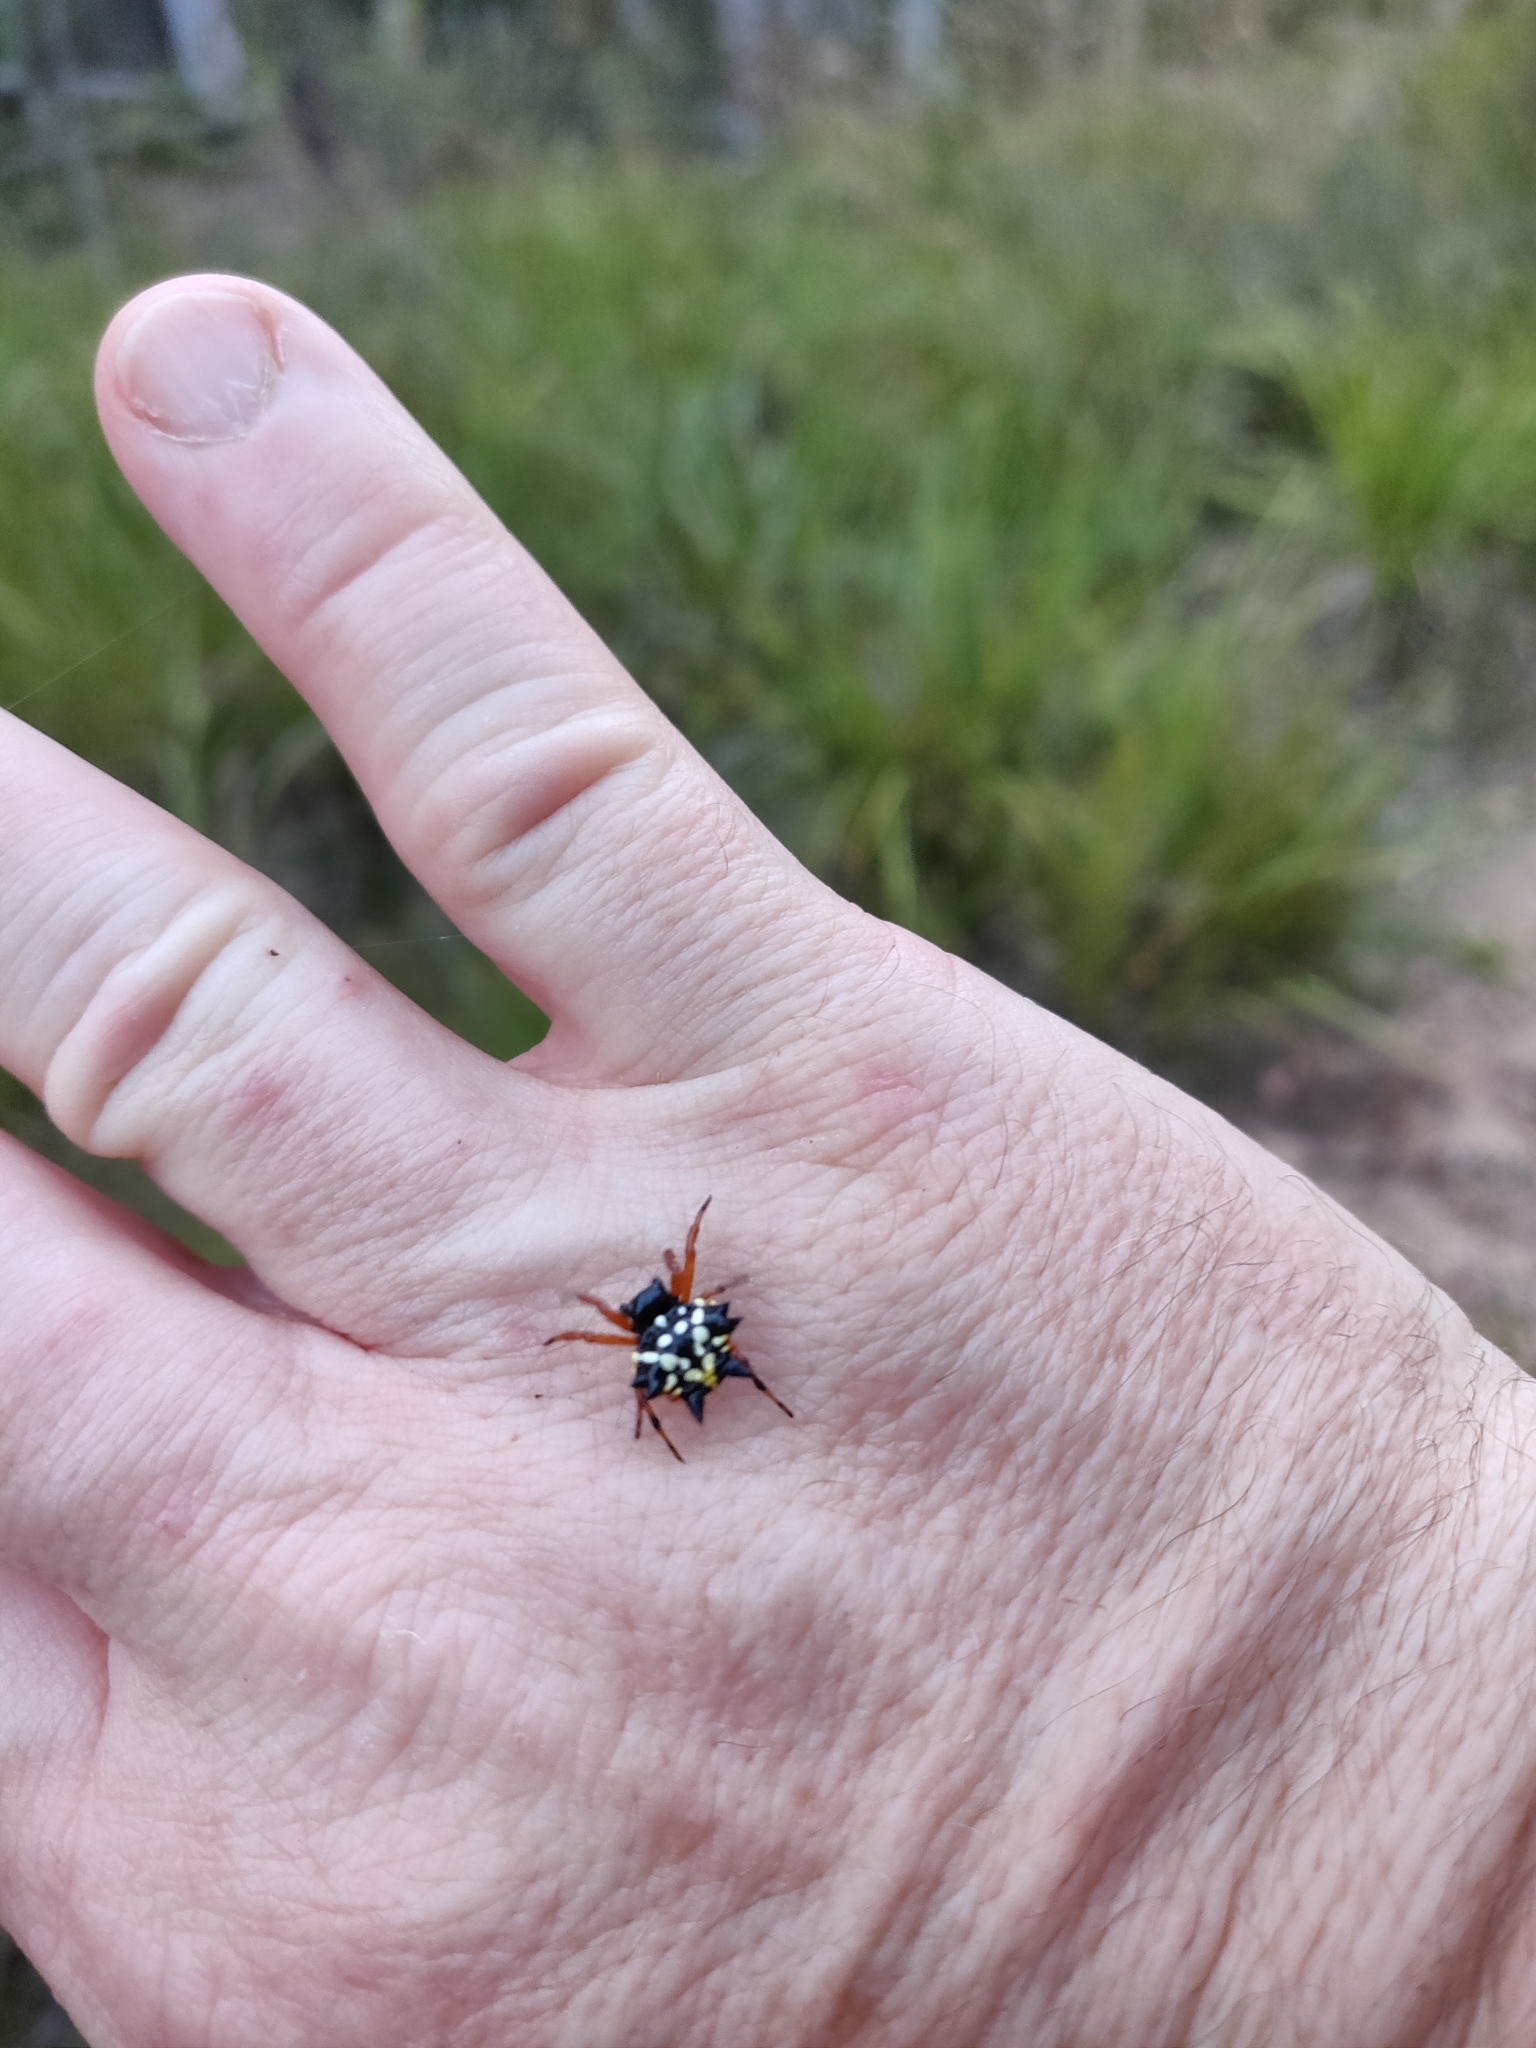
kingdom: Animalia
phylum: Arthropoda
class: Arachnida
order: Araneae
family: Araneidae
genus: Austracantha
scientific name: Austracantha minax
